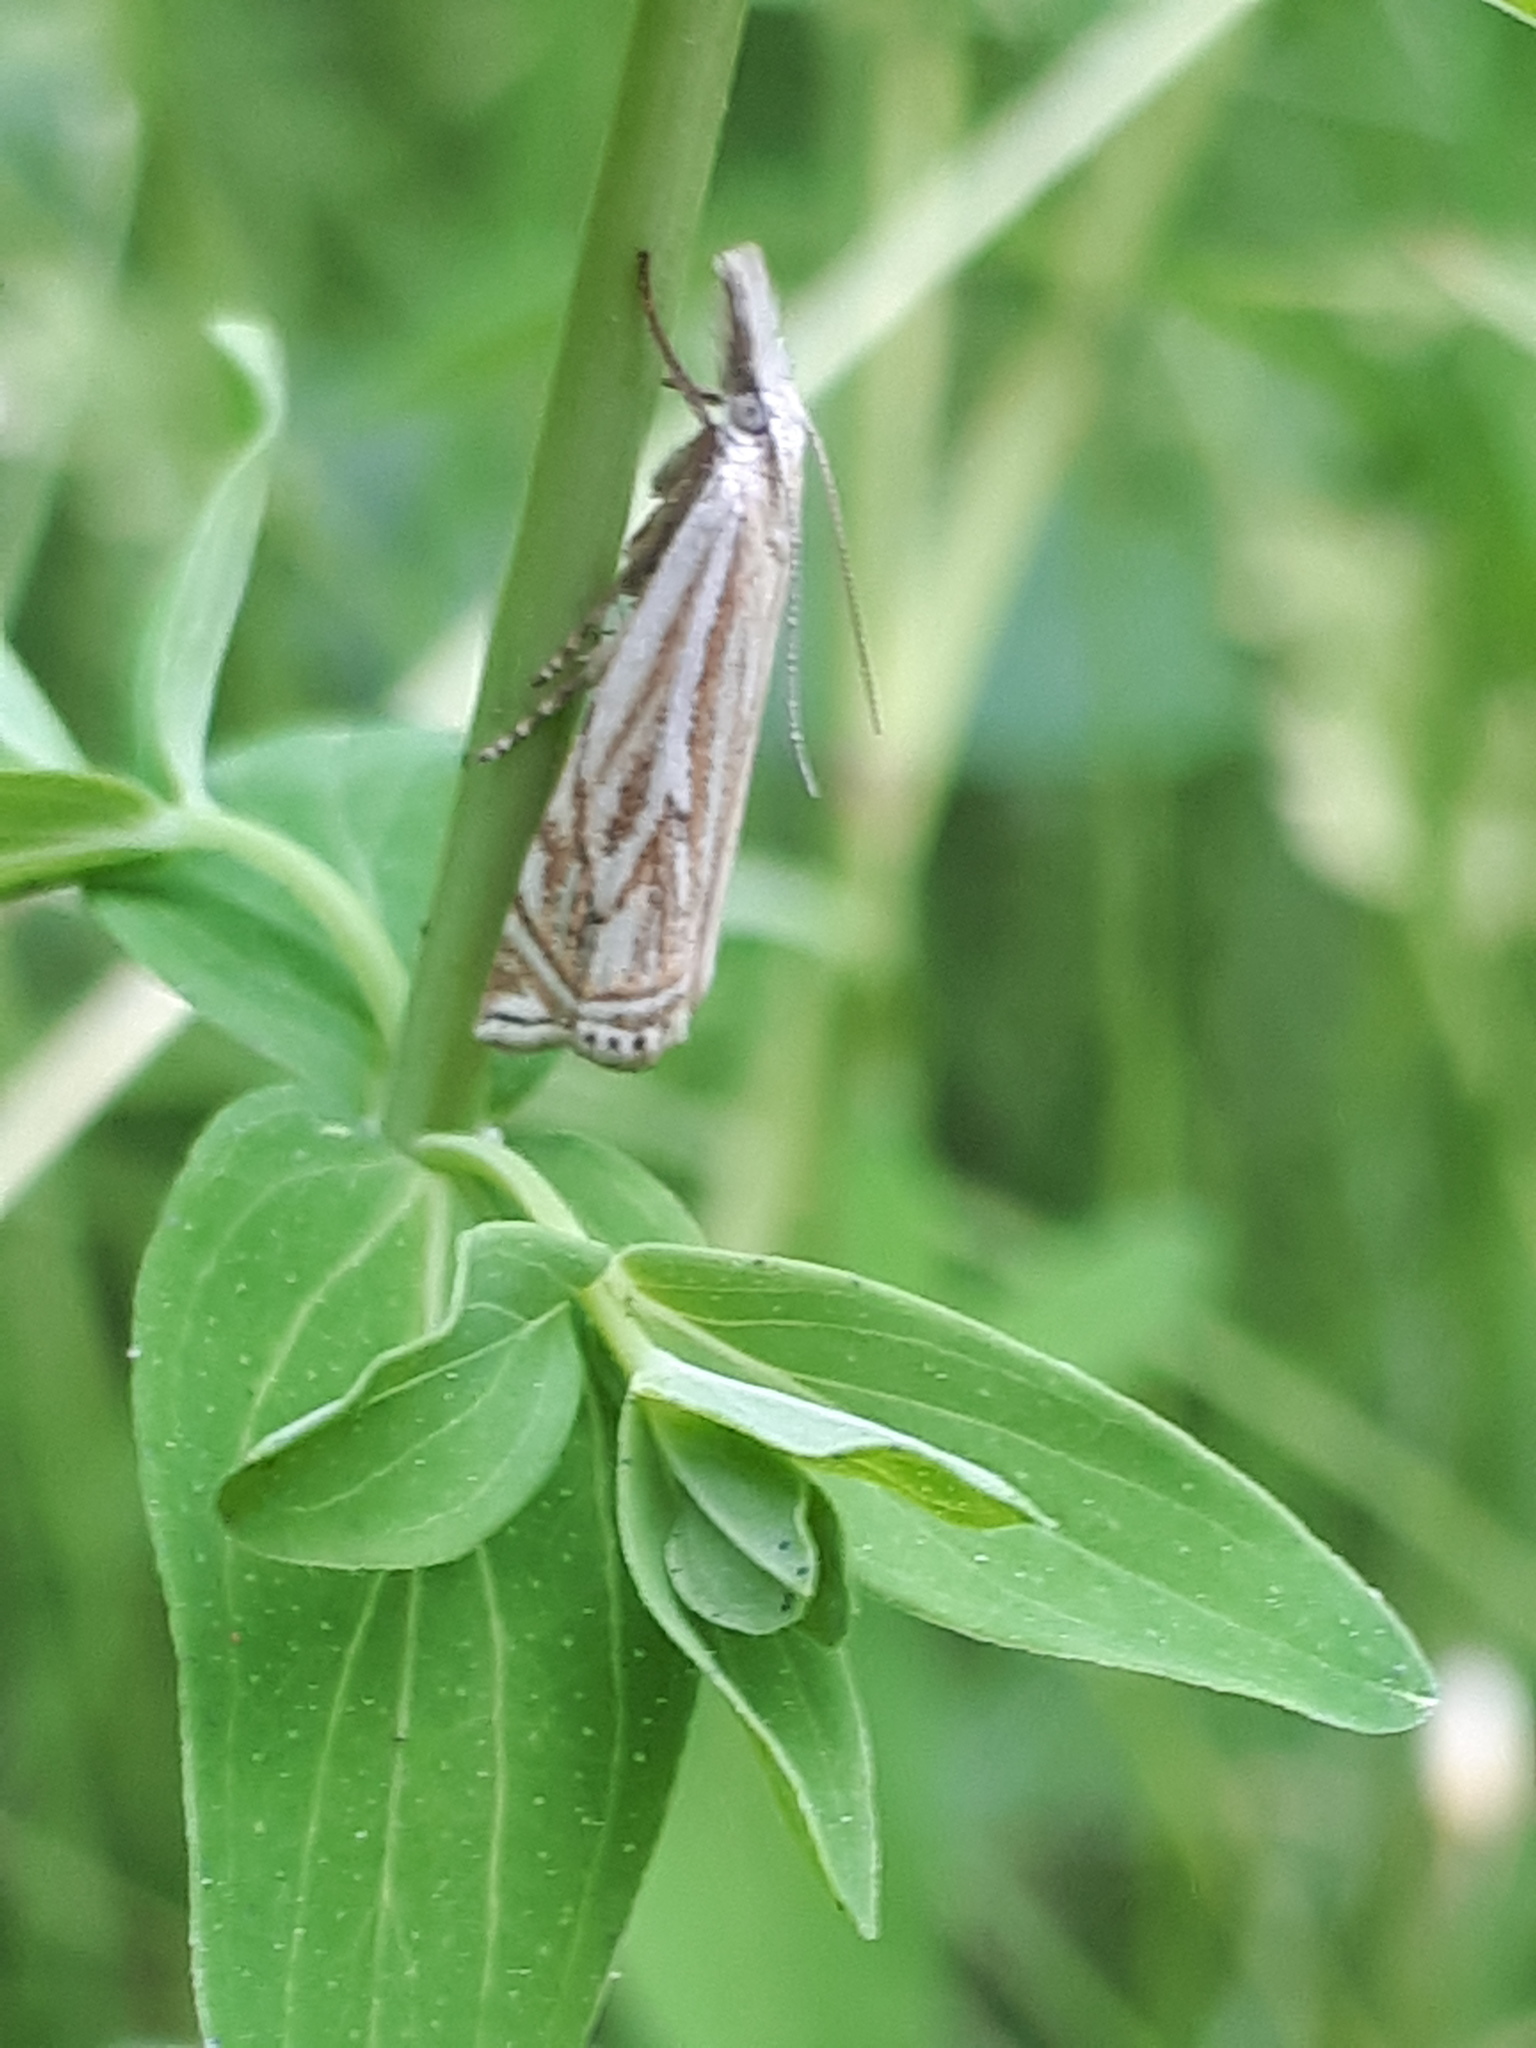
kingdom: Animalia
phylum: Arthropoda
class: Insecta
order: Lepidoptera
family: Crambidae
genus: Crambus
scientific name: Crambus nemorella
